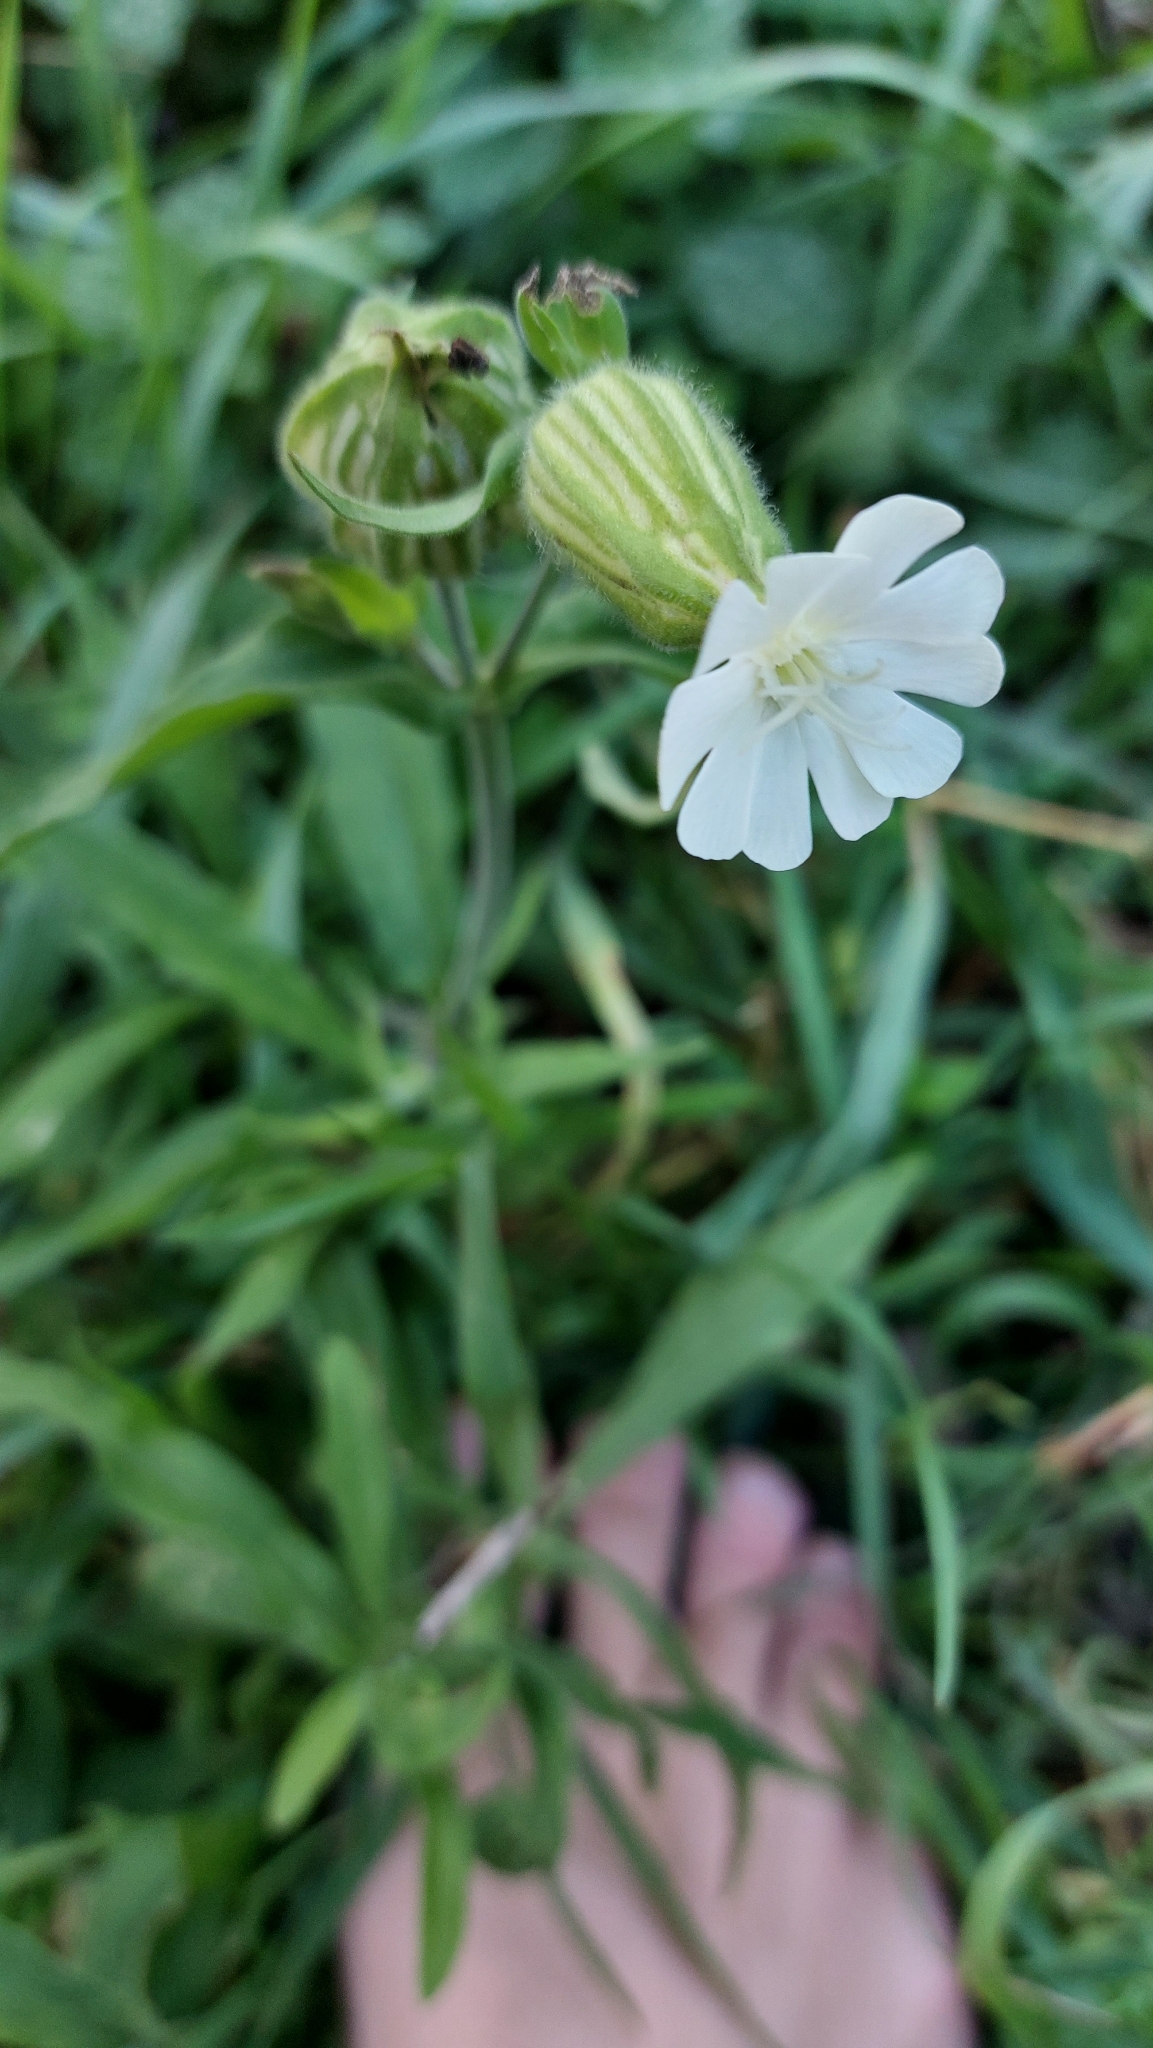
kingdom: Plantae
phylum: Tracheophyta
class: Magnoliopsida
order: Caryophyllales
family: Caryophyllaceae
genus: Silene
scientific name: Silene latifolia
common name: White campion
